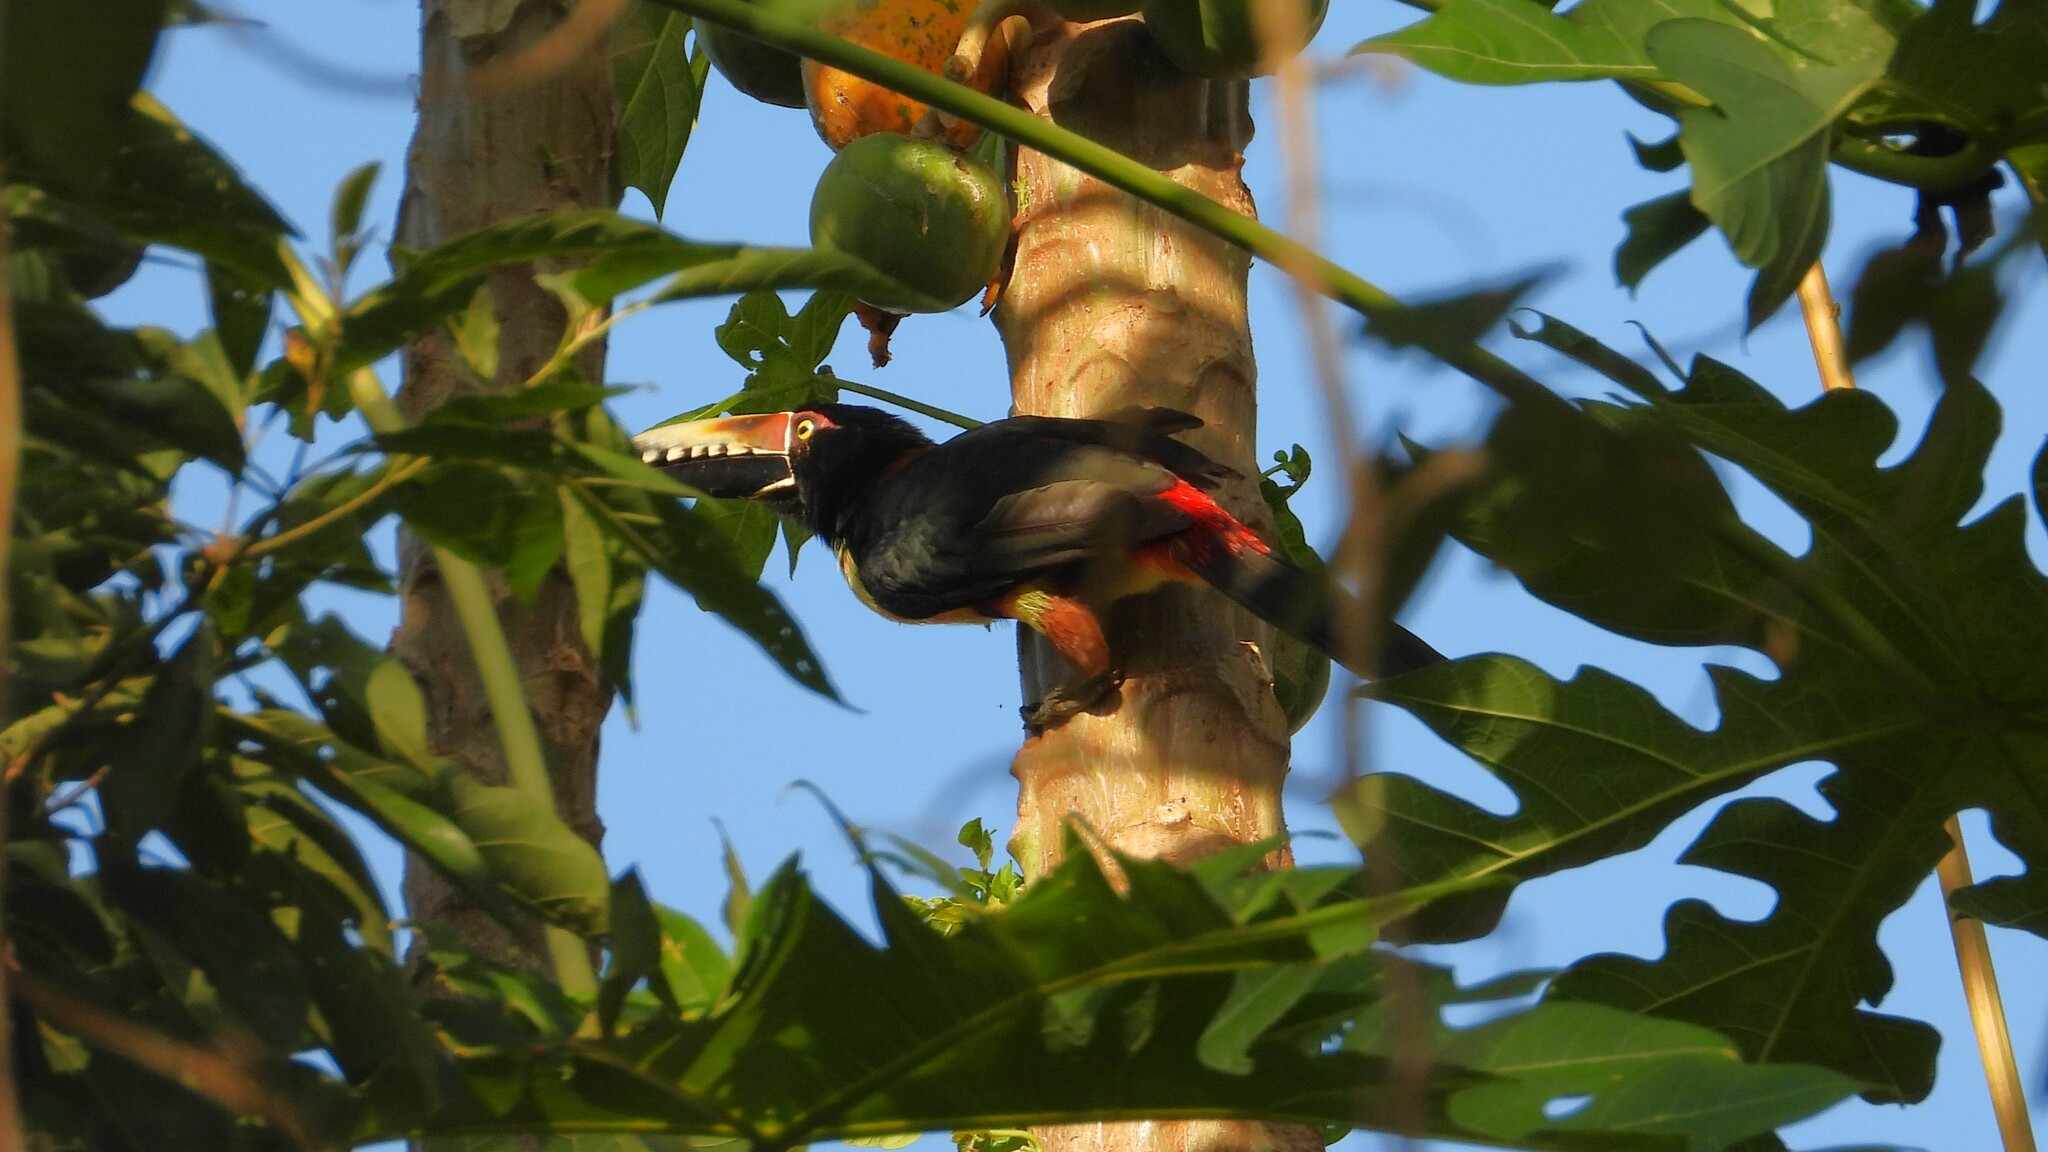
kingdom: Animalia
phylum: Chordata
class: Aves
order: Piciformes
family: Ramphastidae
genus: Pteroglossus
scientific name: Pteroglossus torquatus
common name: Collared aracari
